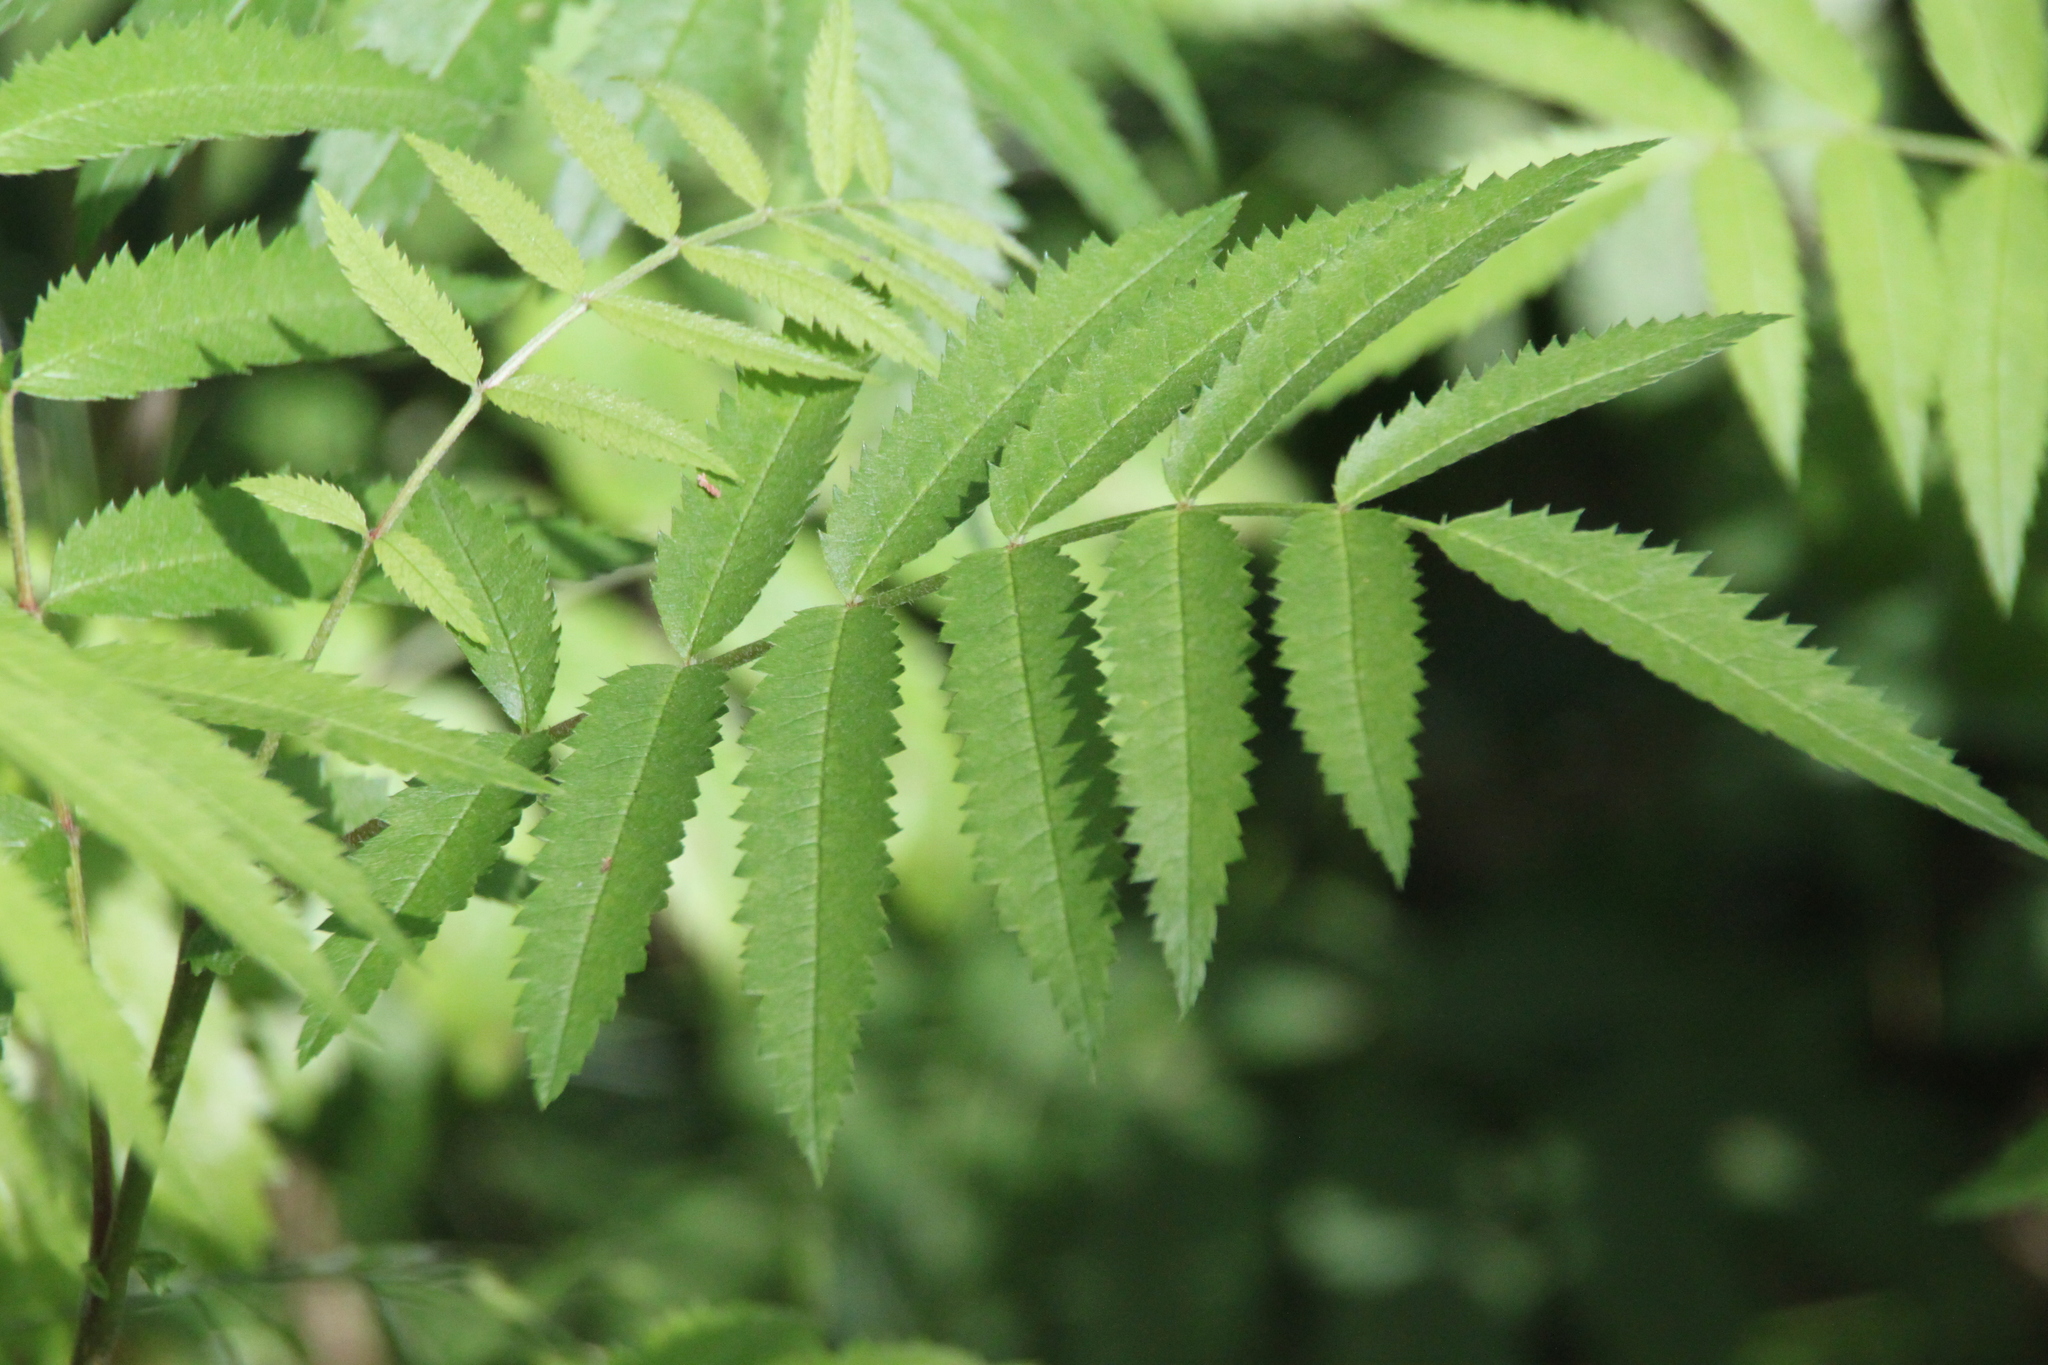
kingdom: Plantae
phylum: Tracheophyta
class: Magnoliopsida
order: Rosales
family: Rosaceae
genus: Sorbus
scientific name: Sorbus aucuparia
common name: Rowan
